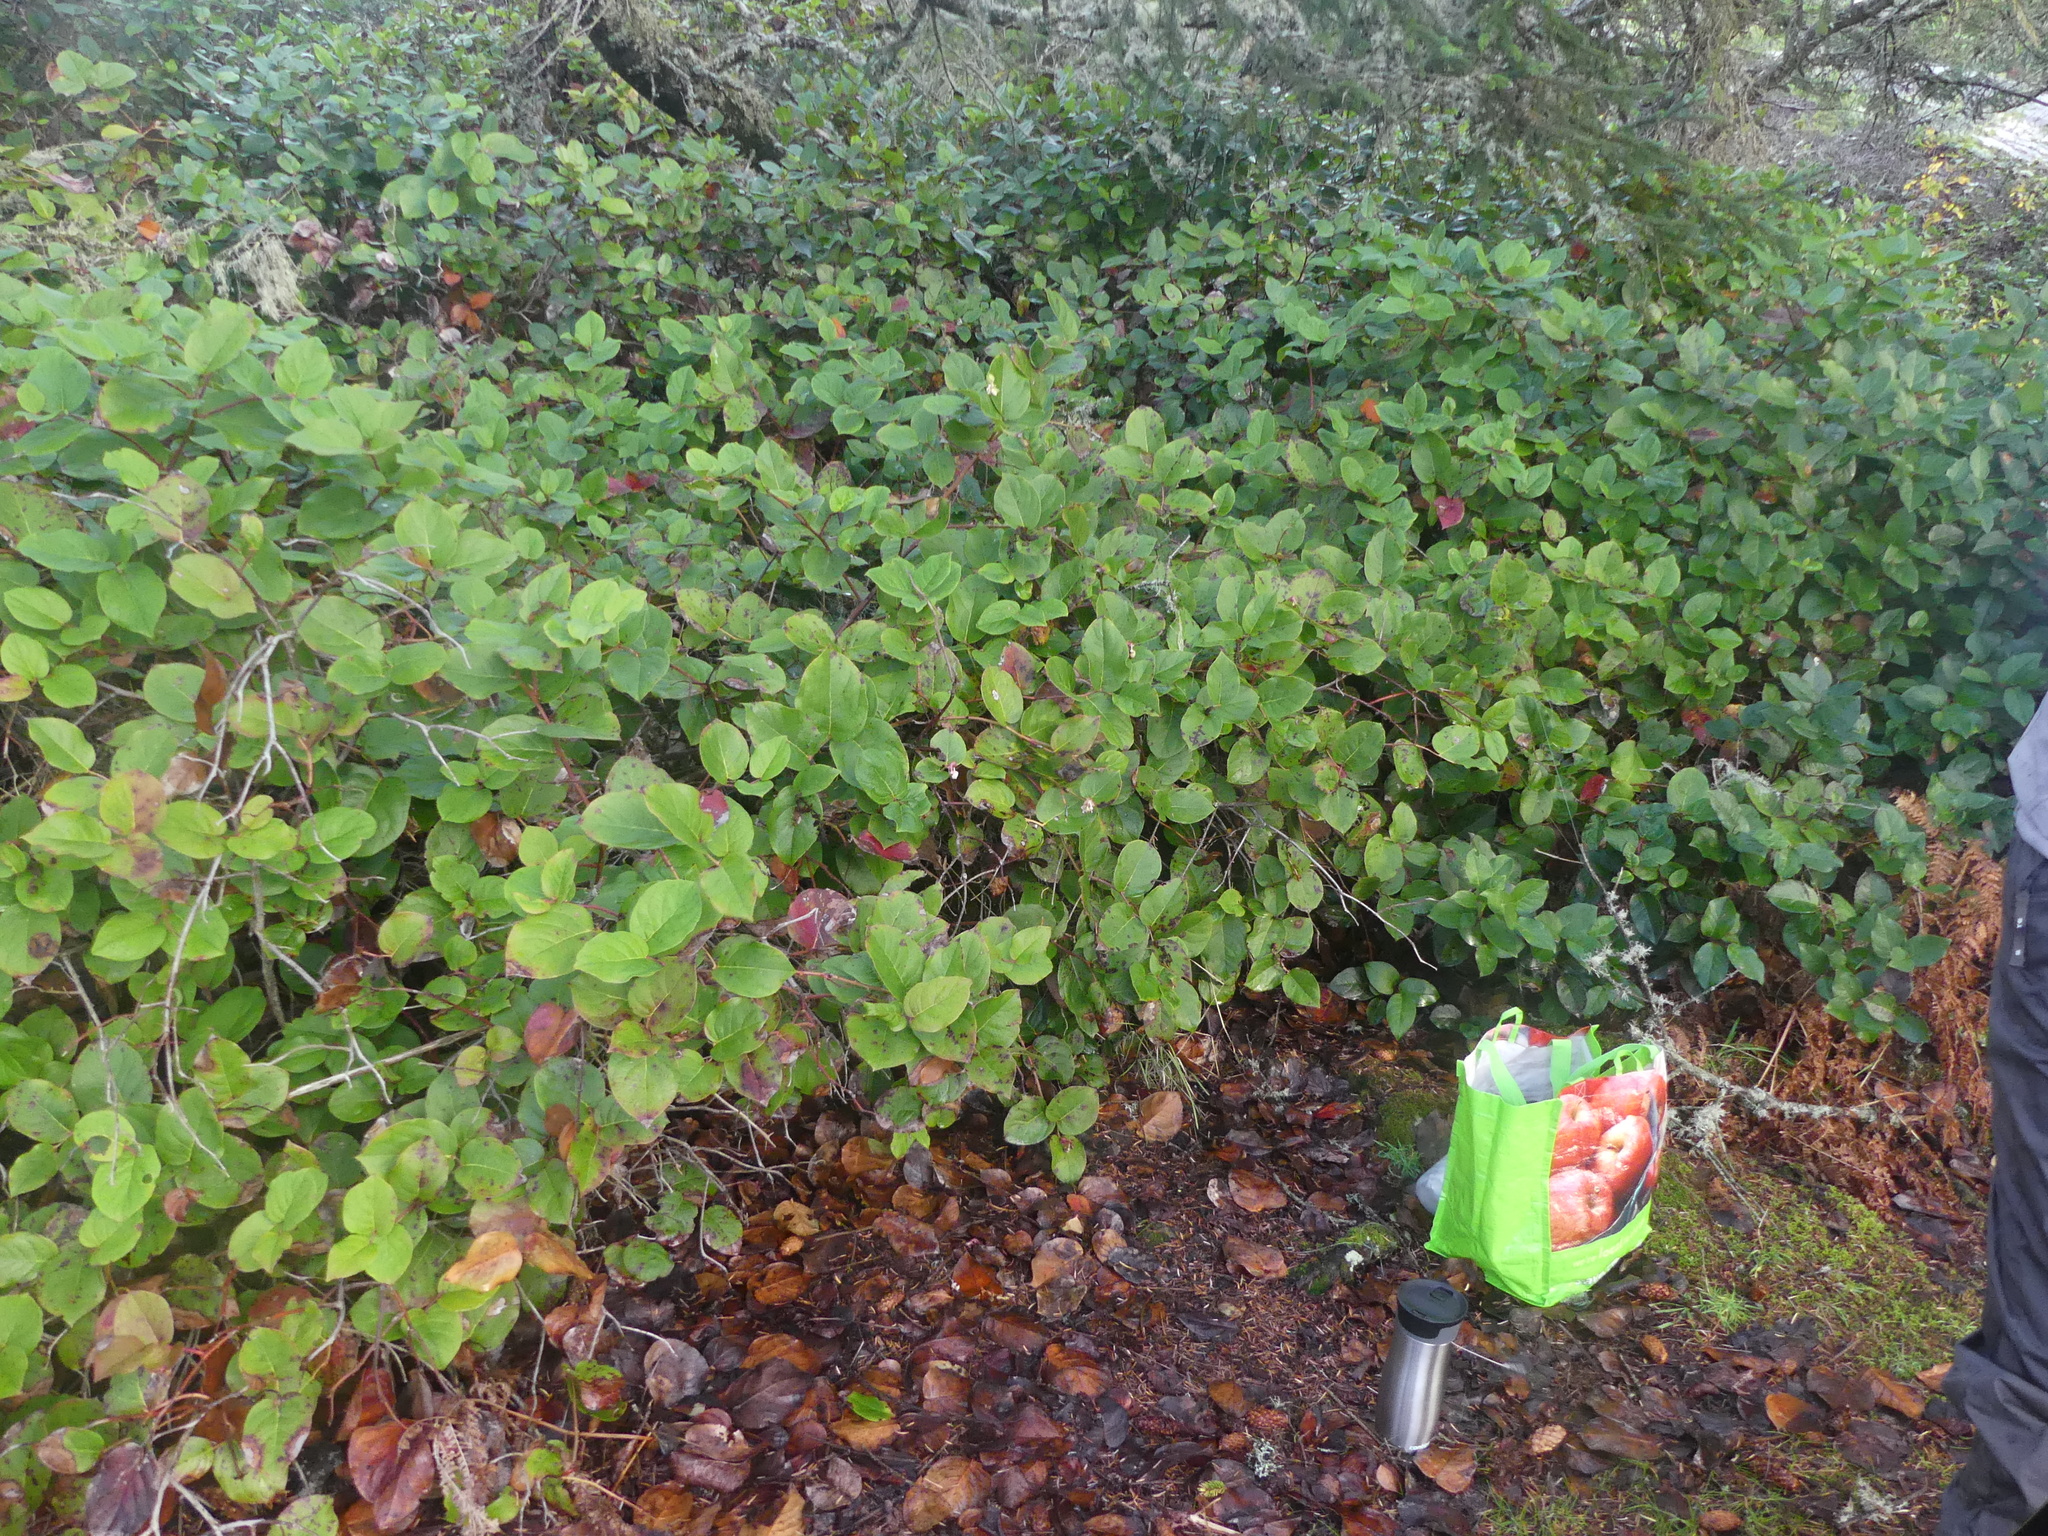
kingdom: Plantae
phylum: Tracheophyta
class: Magnoliopsida
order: Ericales
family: Ericaceae
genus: Gaultheria
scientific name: Gaultheria shallon
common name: Shallon
